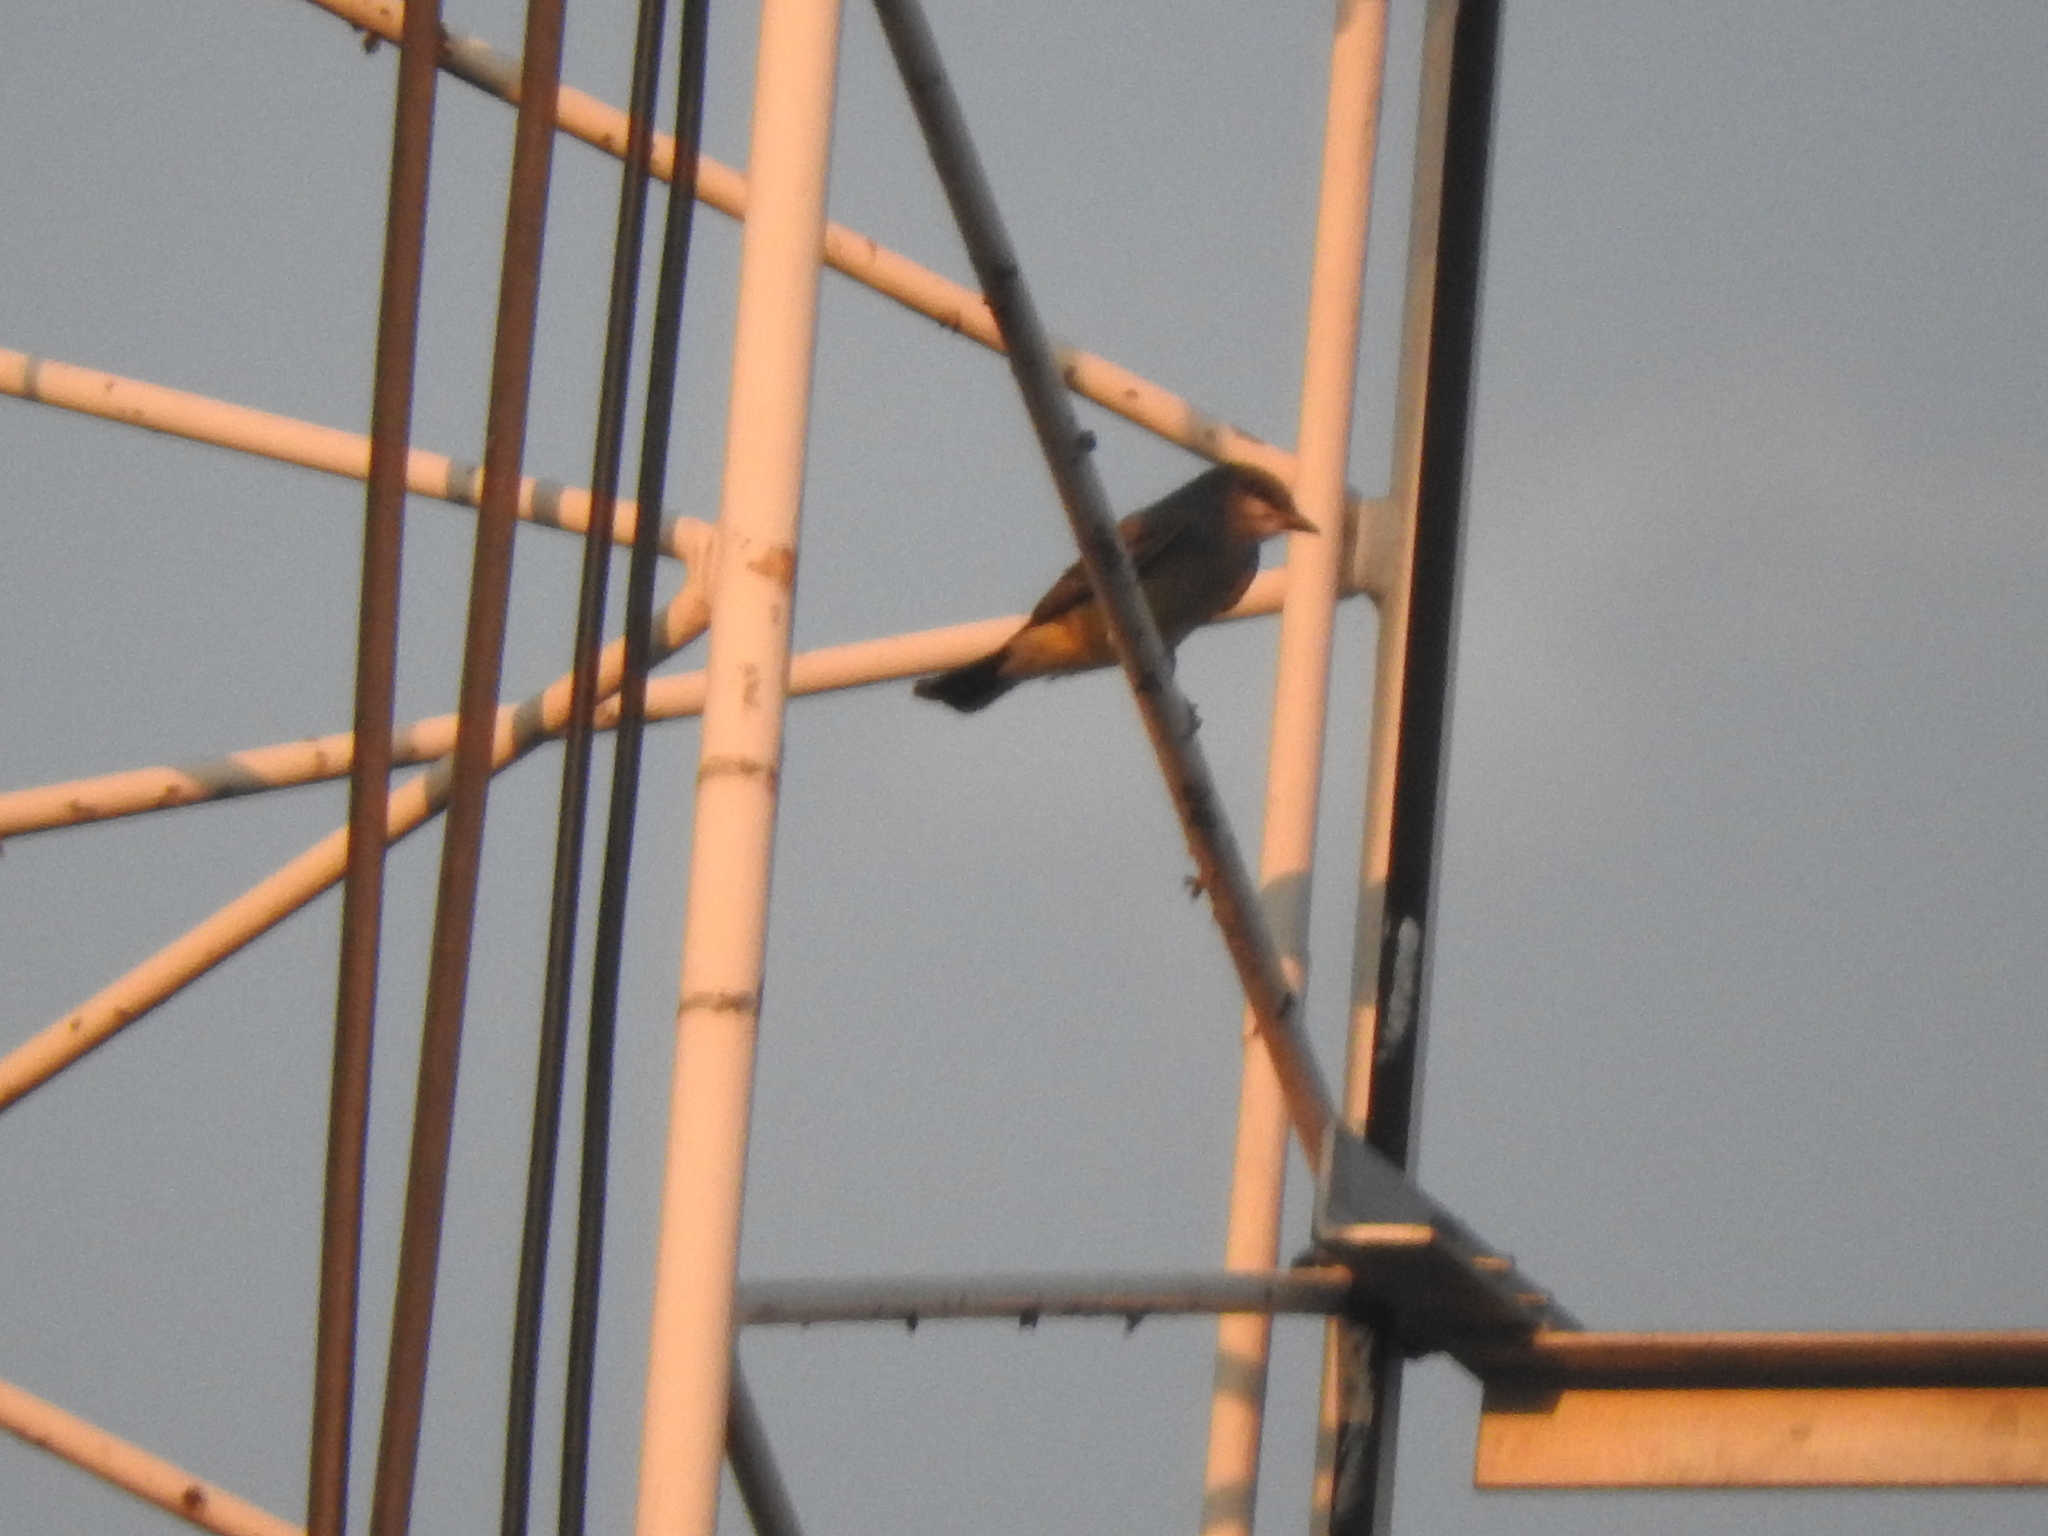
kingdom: Animalia
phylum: Chordata
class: Aves
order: Passeriformes
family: Tyrannidae
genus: Tyrannus
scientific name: Tyrannus vociferans
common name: Cassin's kingbird
